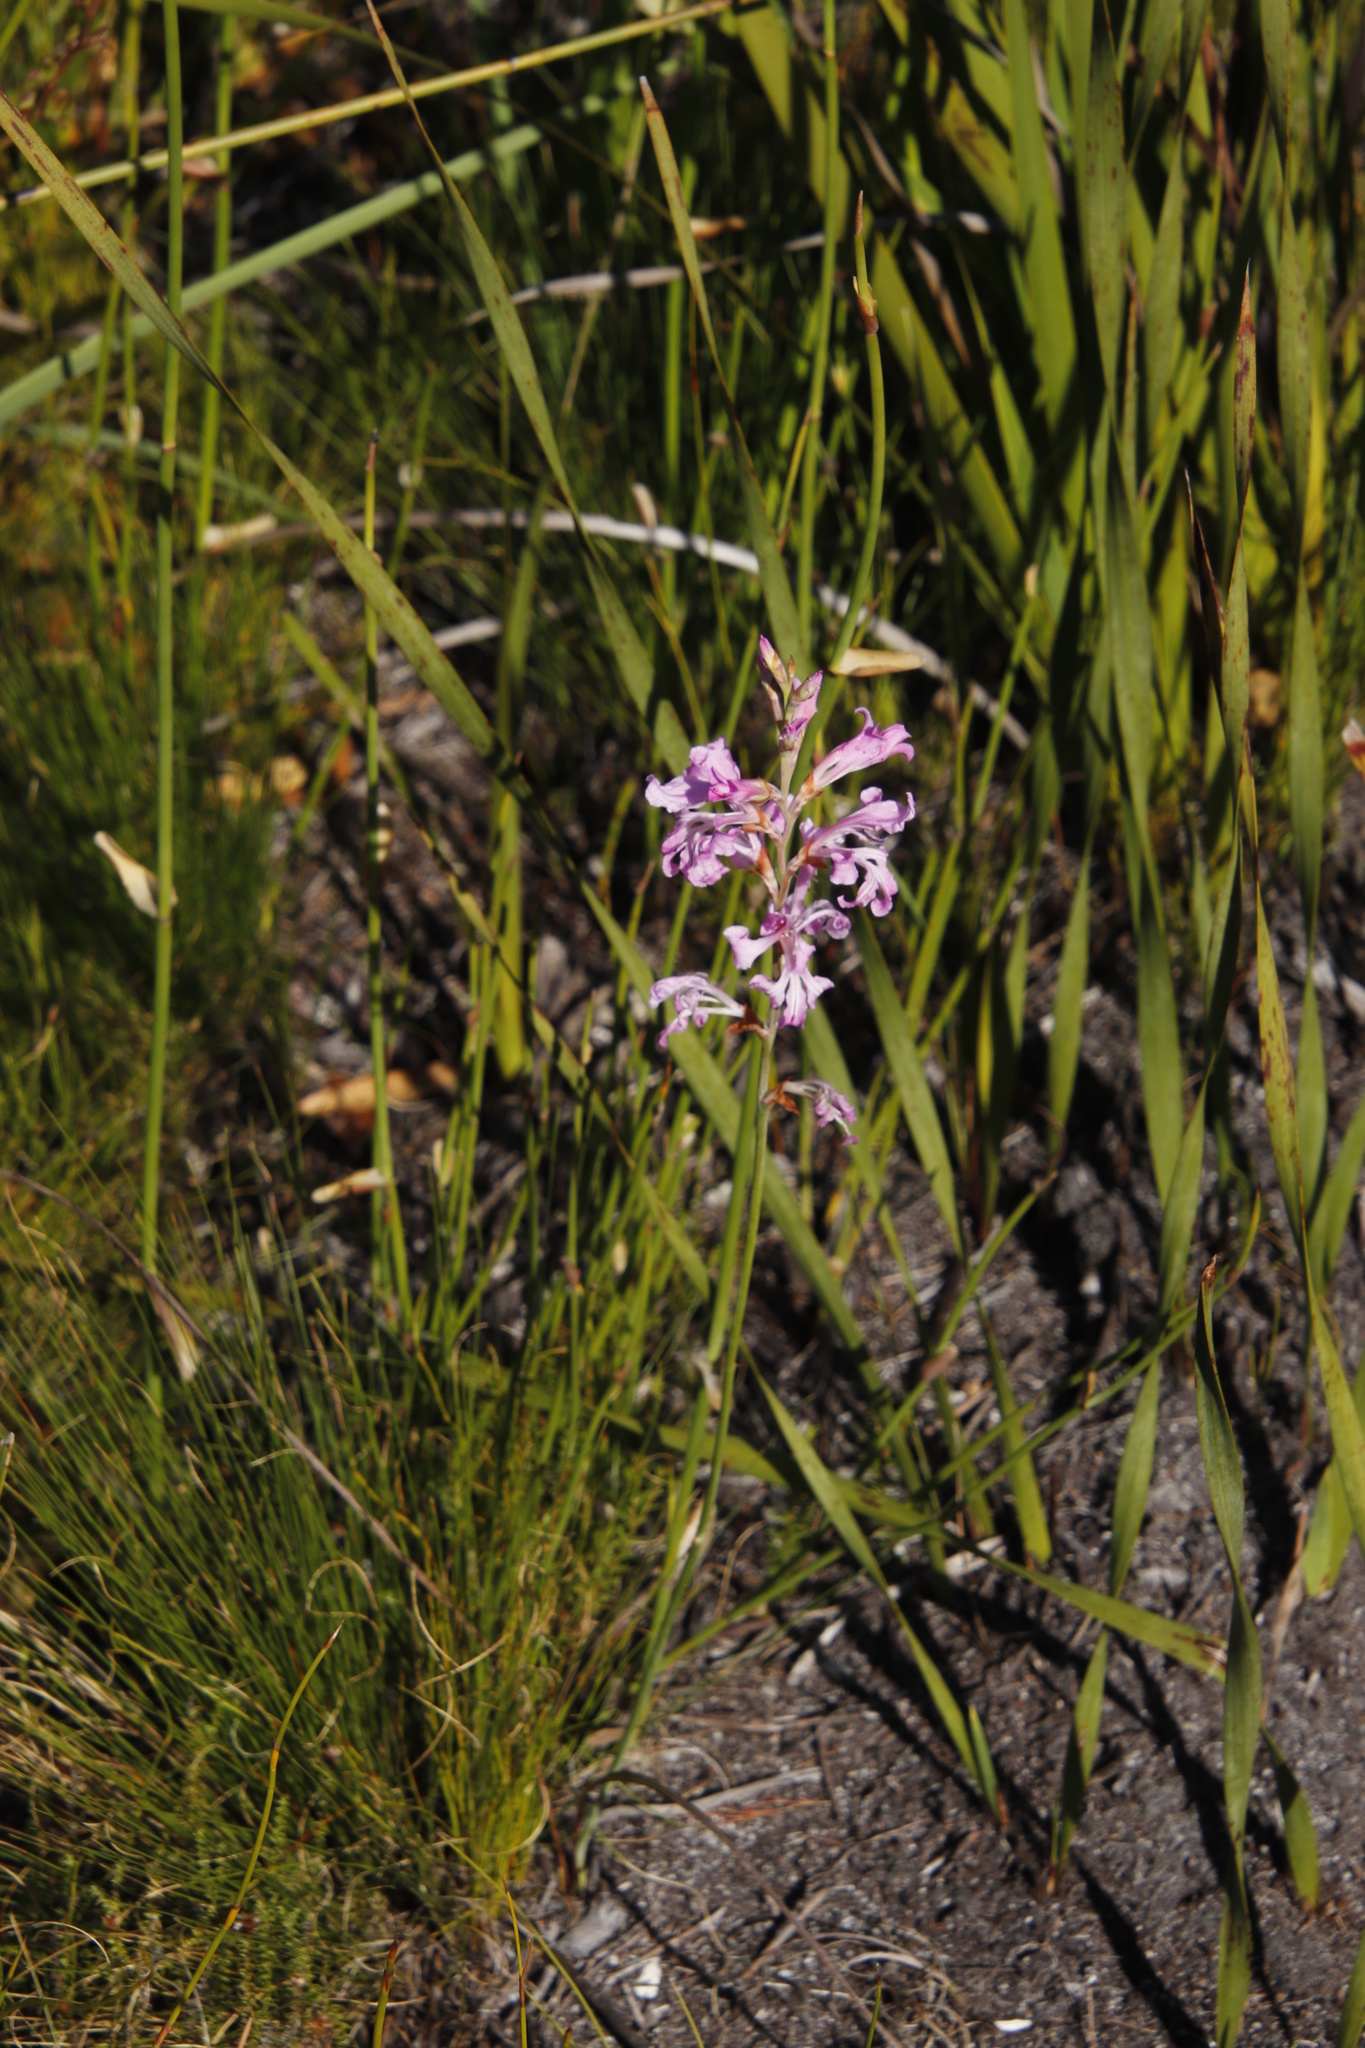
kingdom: Plantae
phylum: Tracheophyta
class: Liliopsida
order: Asparagales
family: Iridaceae
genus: Tritoniopsis
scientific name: Tritoniopsis lata
